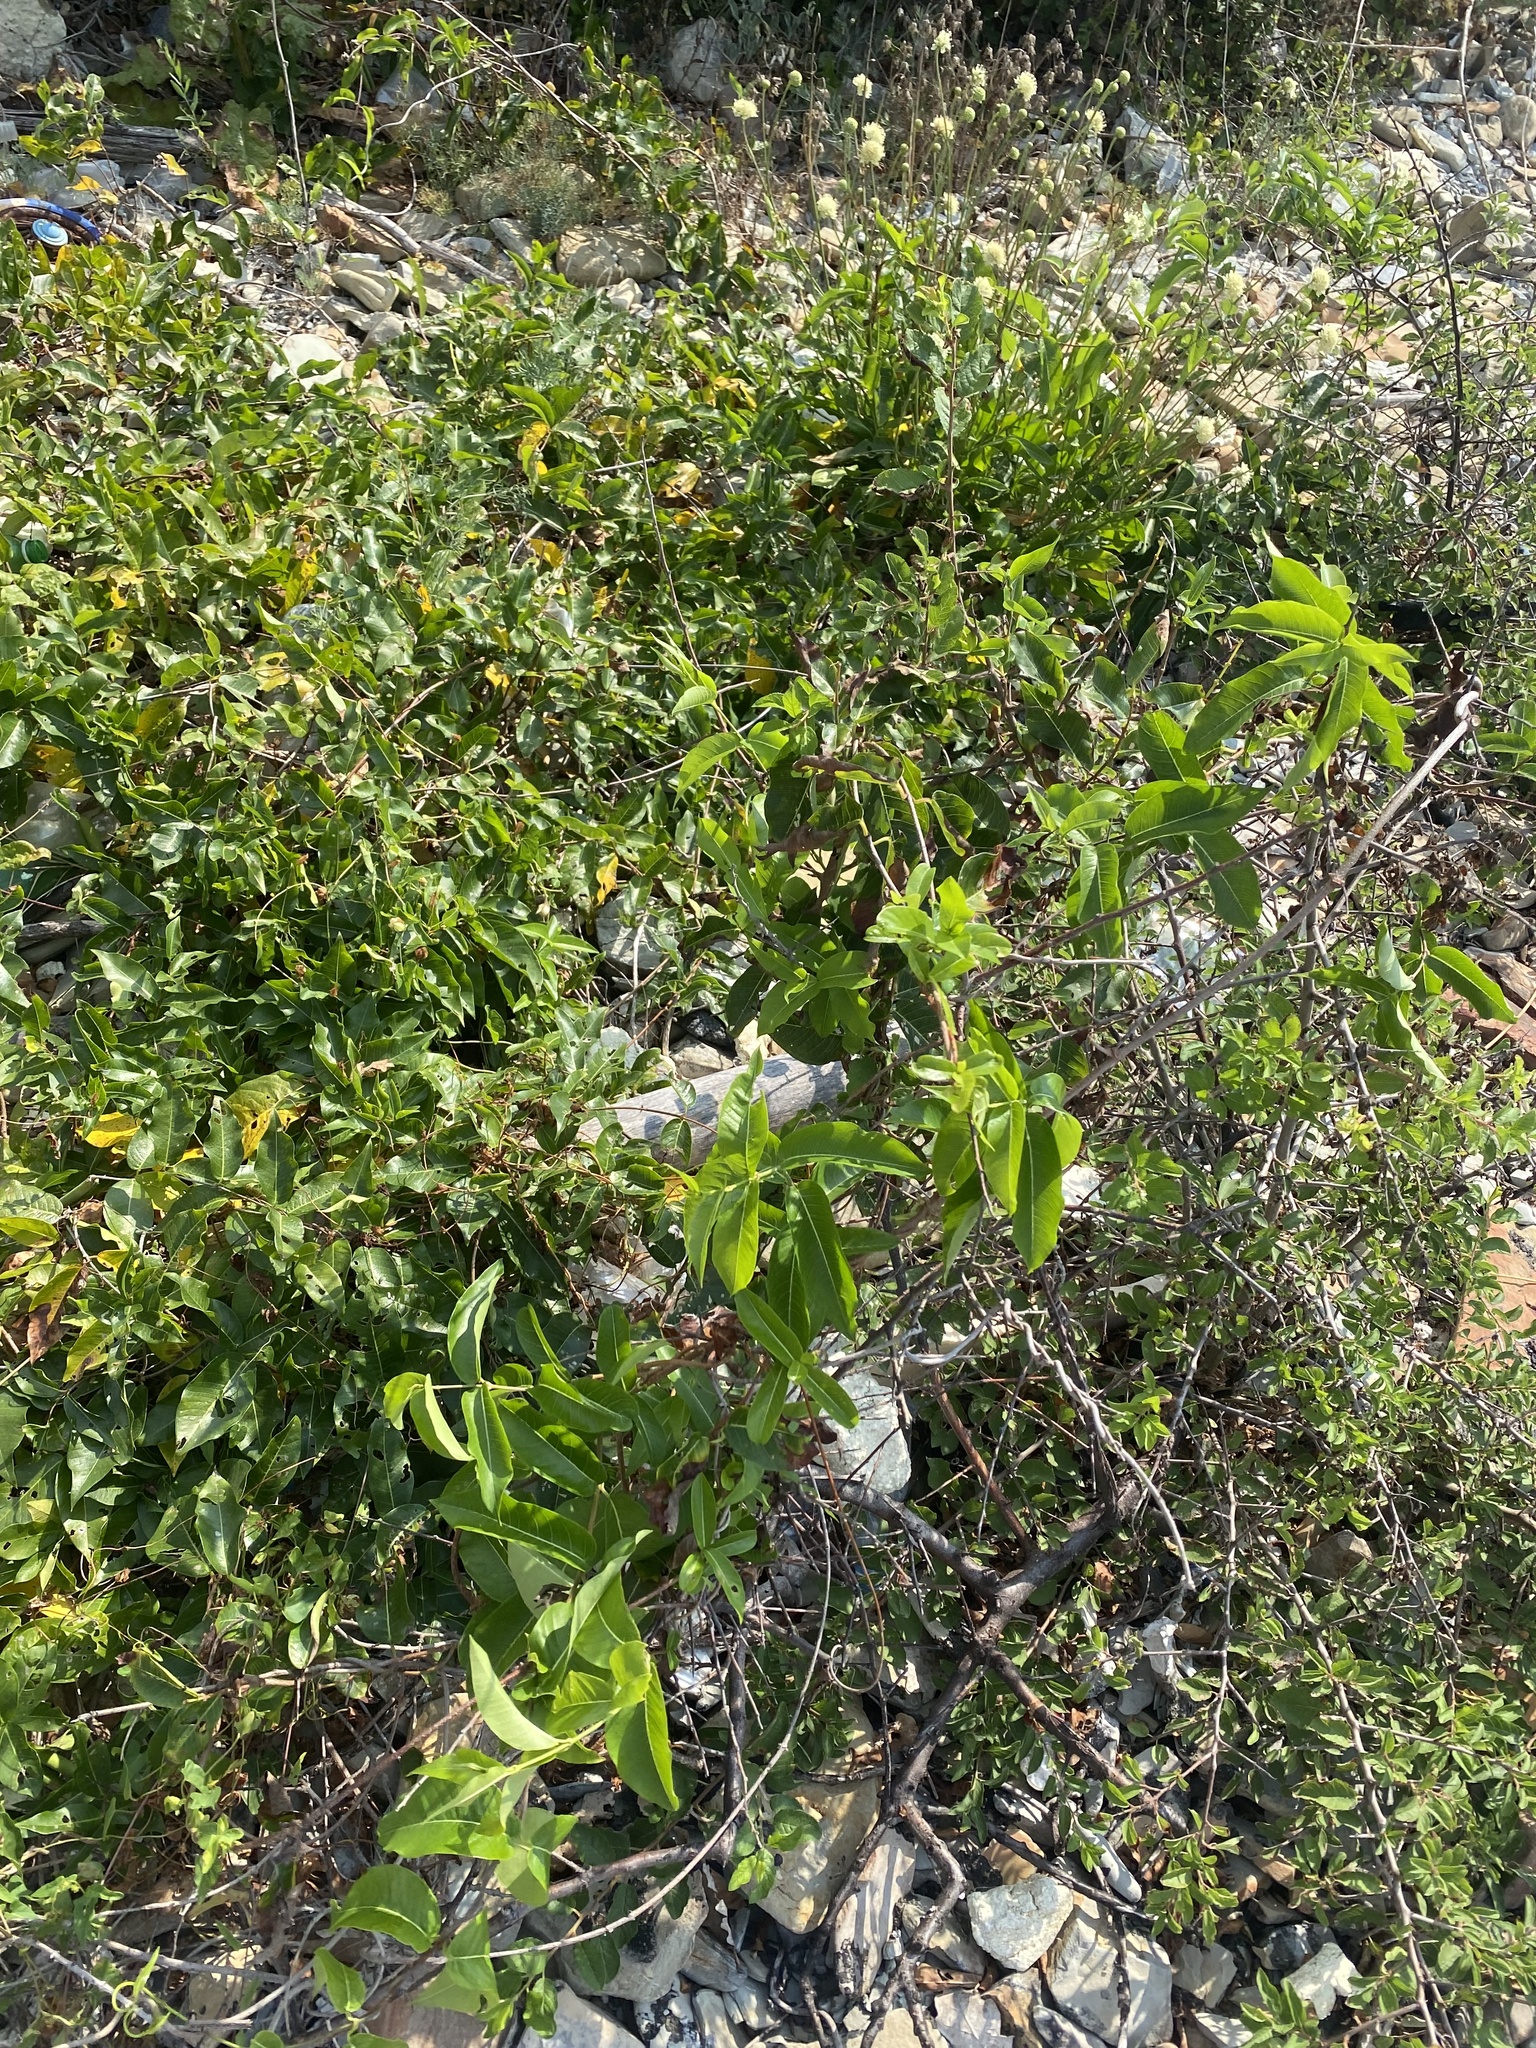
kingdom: Plantae
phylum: Tracheophyta
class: Magnoliopsida
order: Gentianales
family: Apocynaceae
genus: Periploca
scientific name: Periploca graeca
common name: Silkvine
